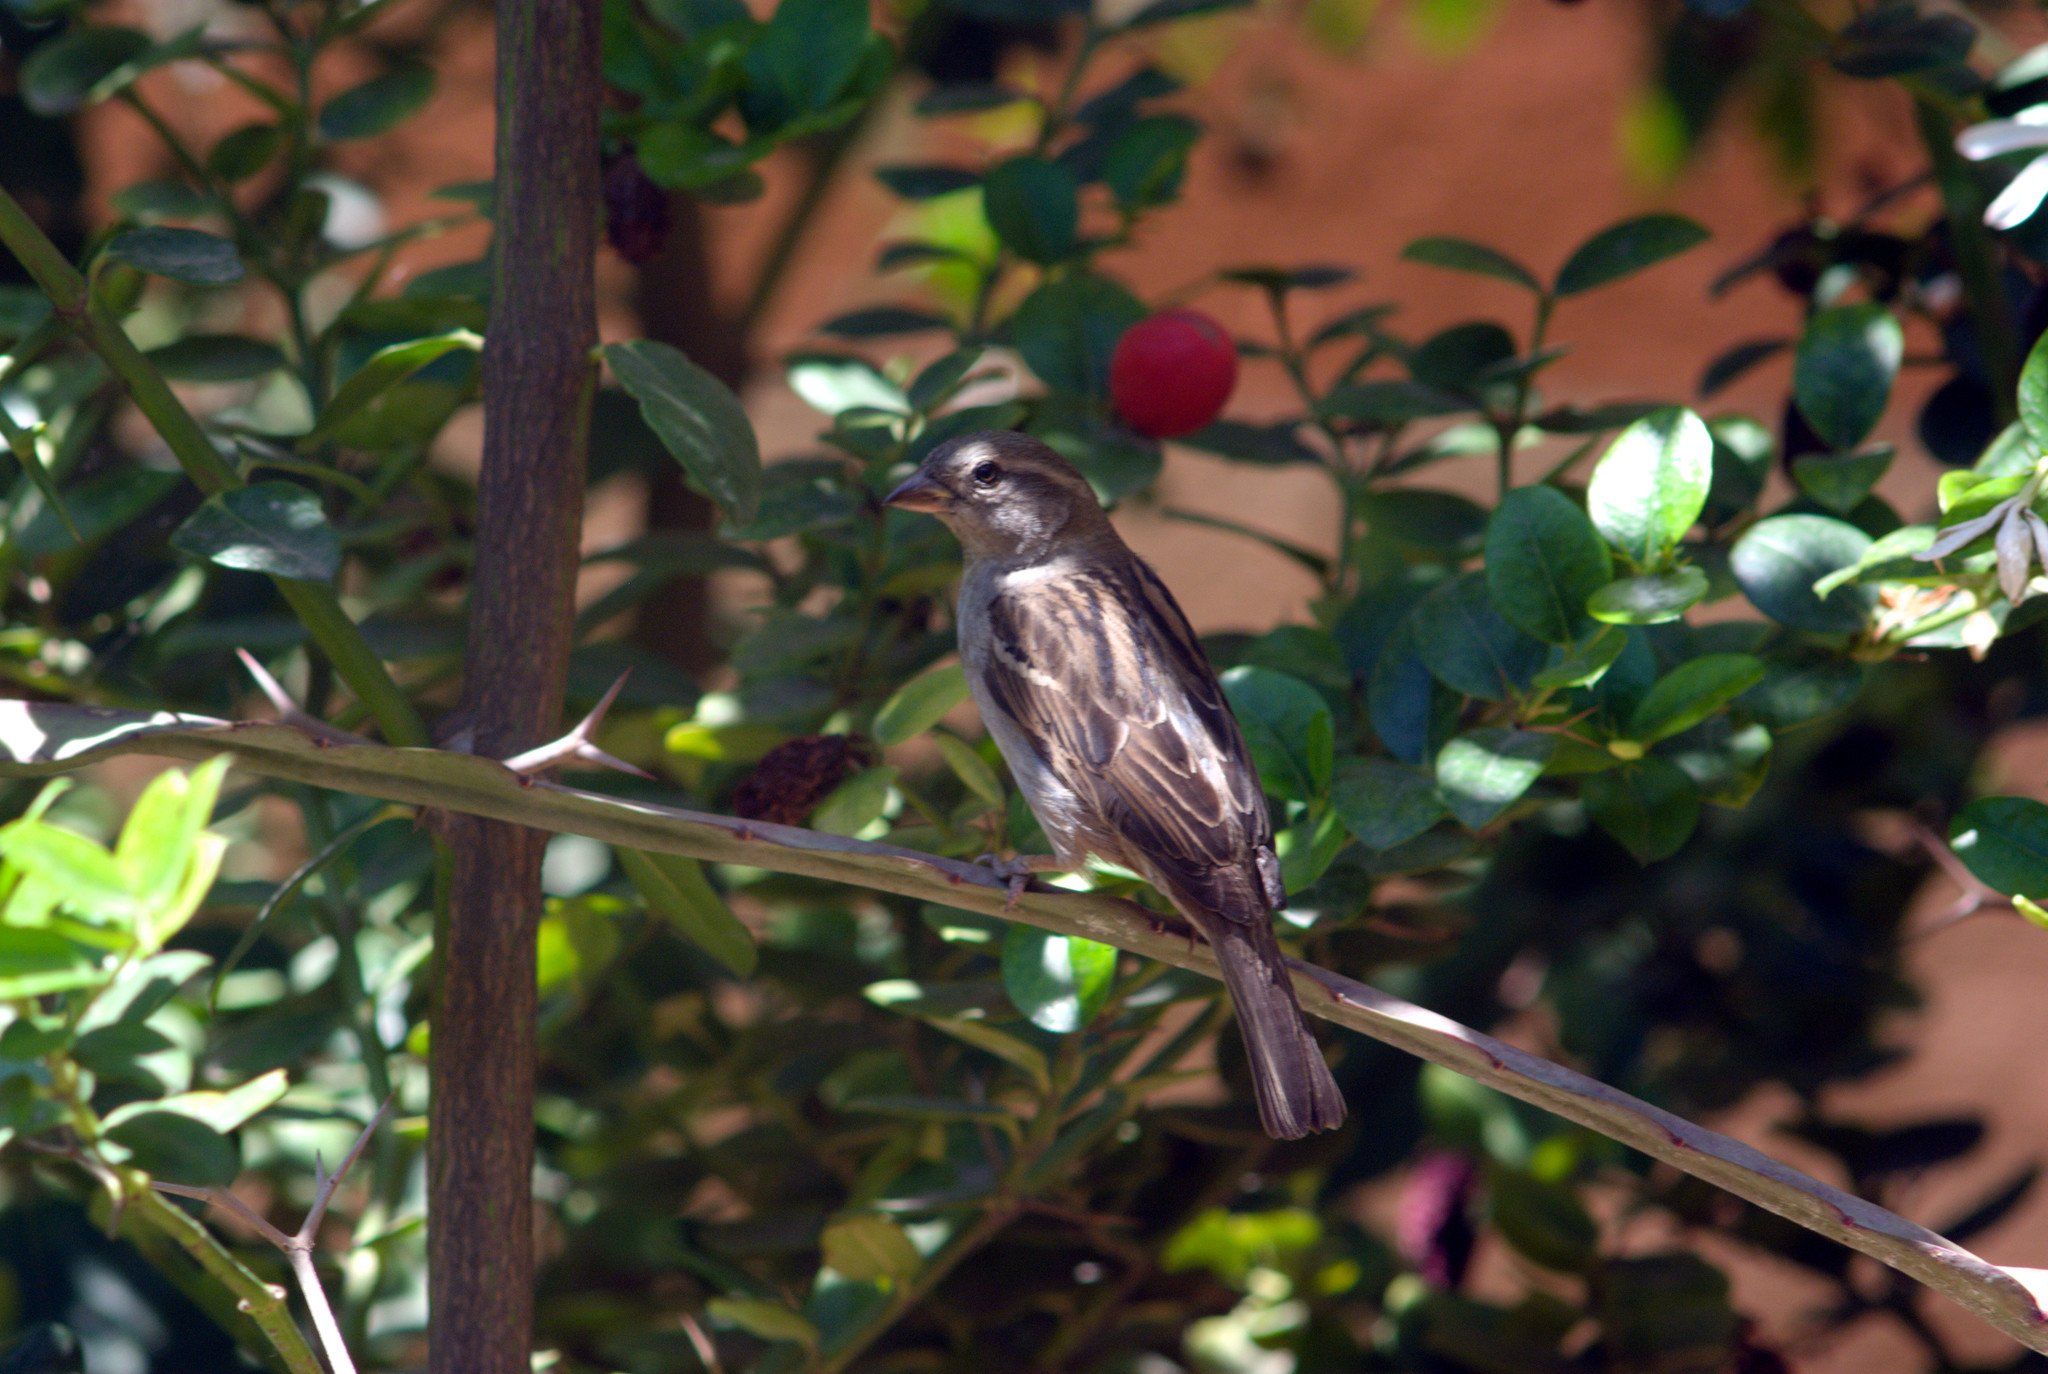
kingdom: Animalia
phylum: Chordata
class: Aves
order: Passeriformes
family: Passeridae
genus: Passer
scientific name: Passer domesticus
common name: House sparrow
